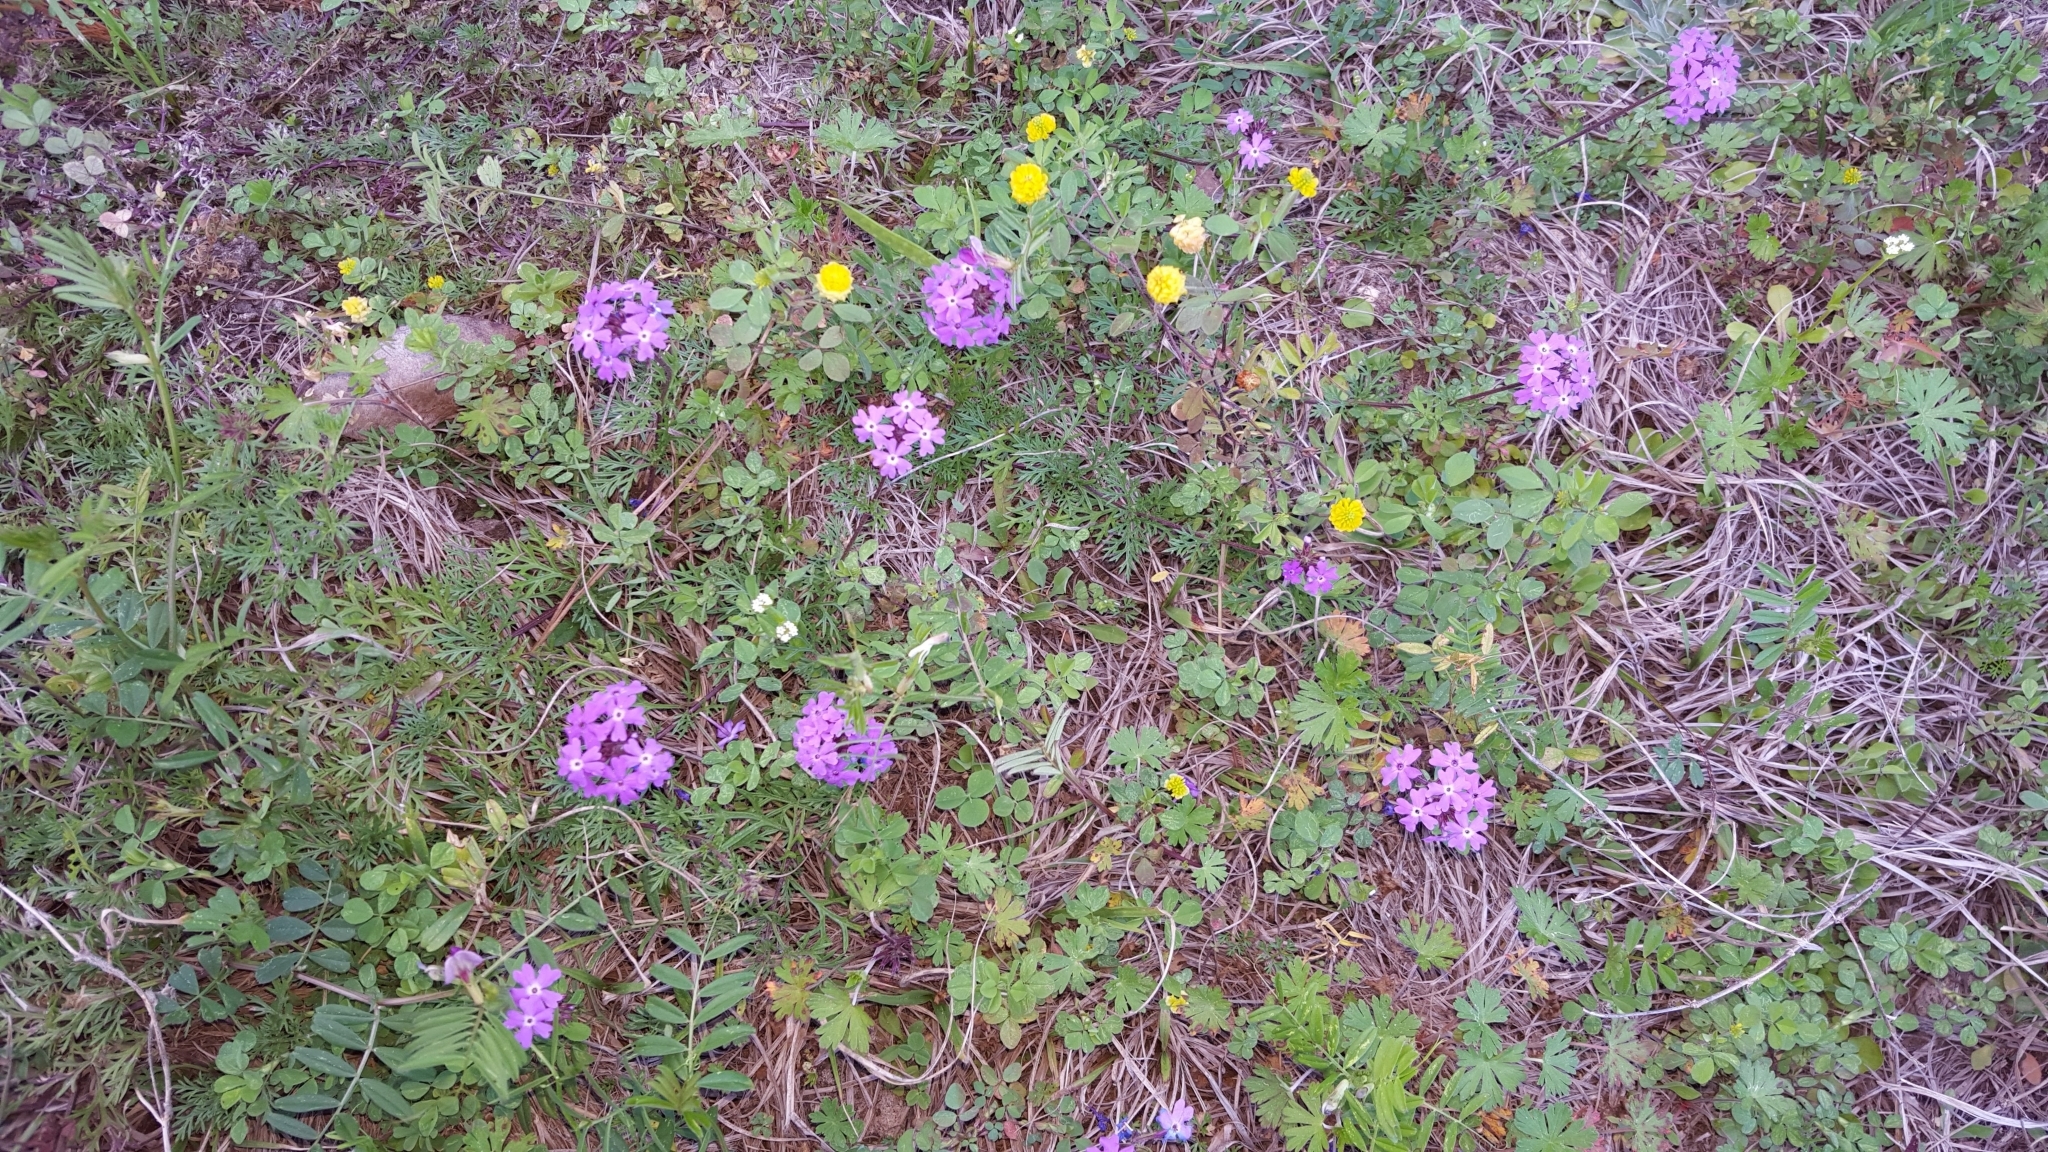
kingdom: Plantae
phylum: Tracheophyta
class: Magnoliopsida
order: Lamiales
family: Verbenaceae
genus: Verbena
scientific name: Verbena
